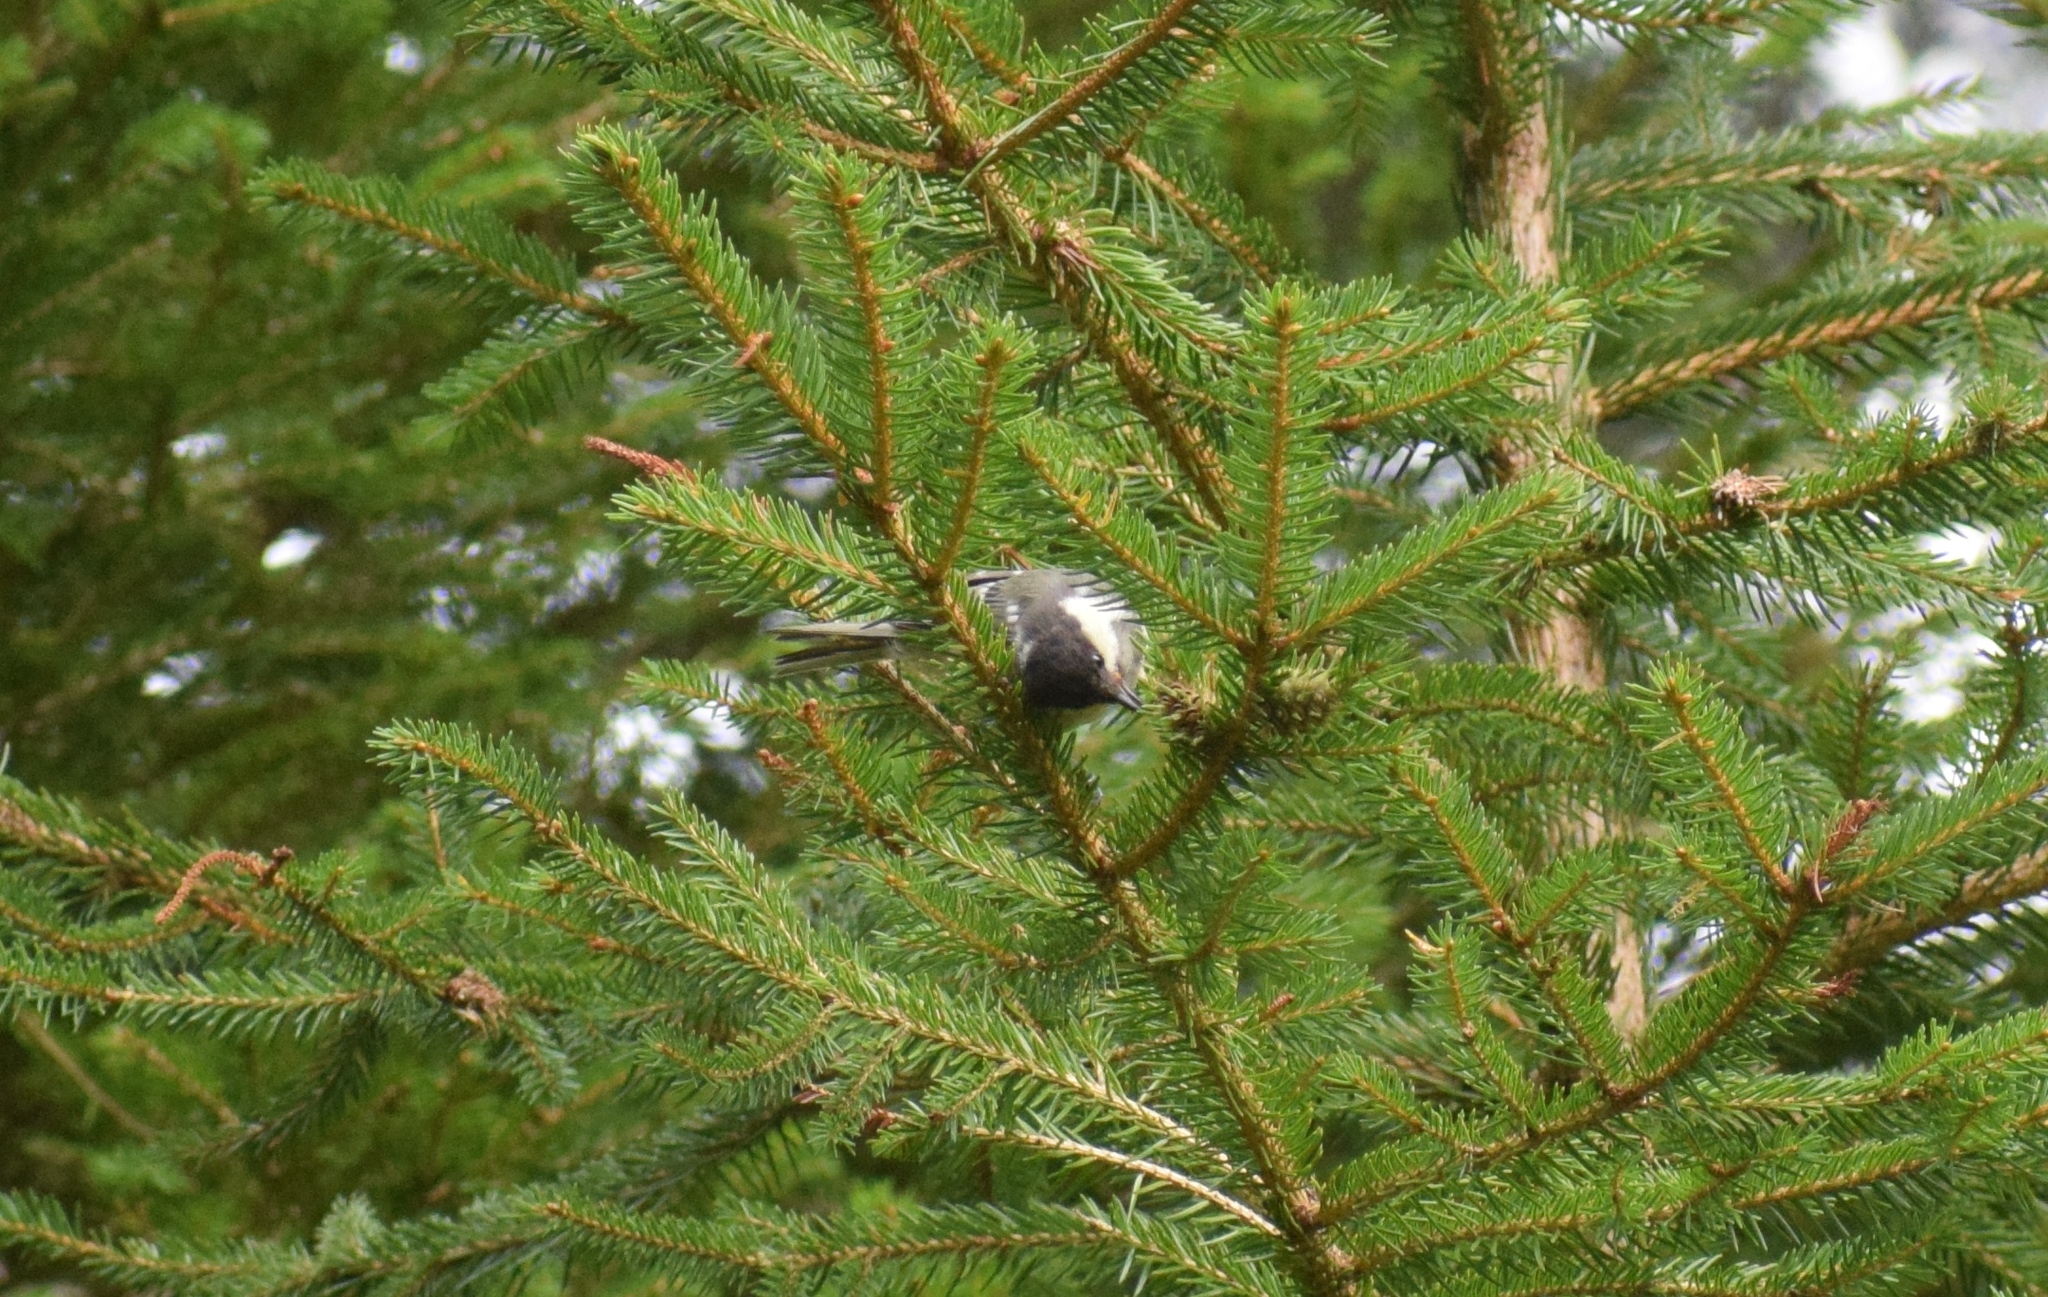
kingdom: Animalia
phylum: Chordata
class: Aves
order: Passeriformes
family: Paridae
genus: Periparus
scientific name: Periparus ater
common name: Coal tit
